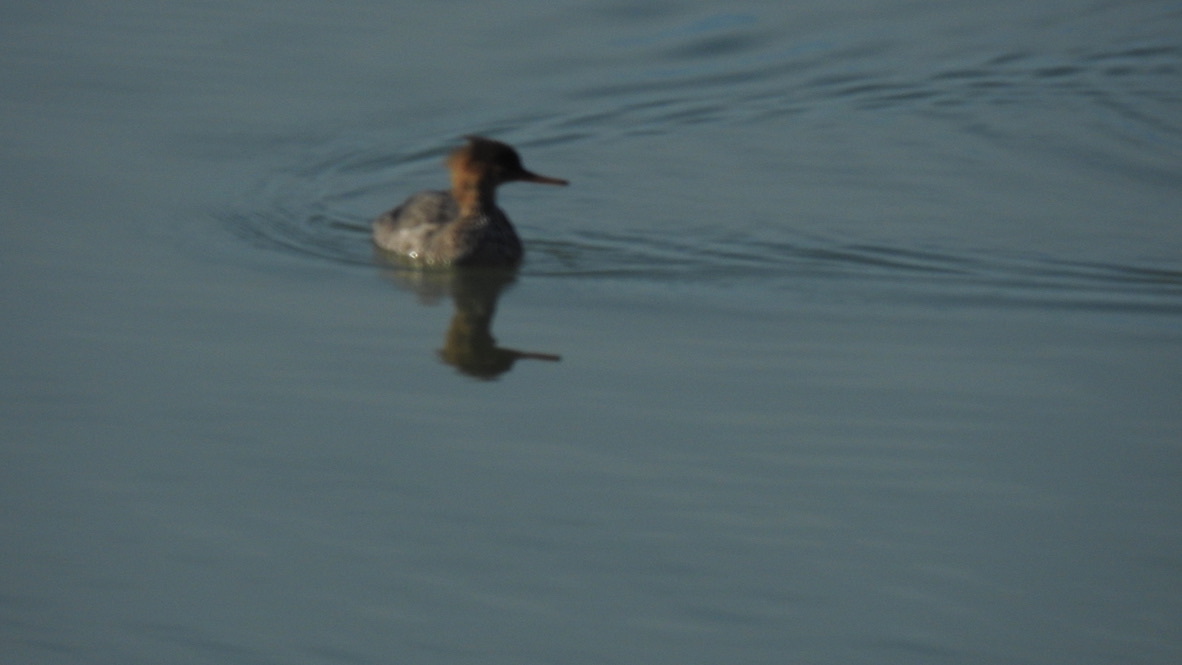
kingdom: Animalia
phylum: Chordata
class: Aves
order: Anseriformes
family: Anatidae
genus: Mergus
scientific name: Mergus serrator
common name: Red-breasted merganser
